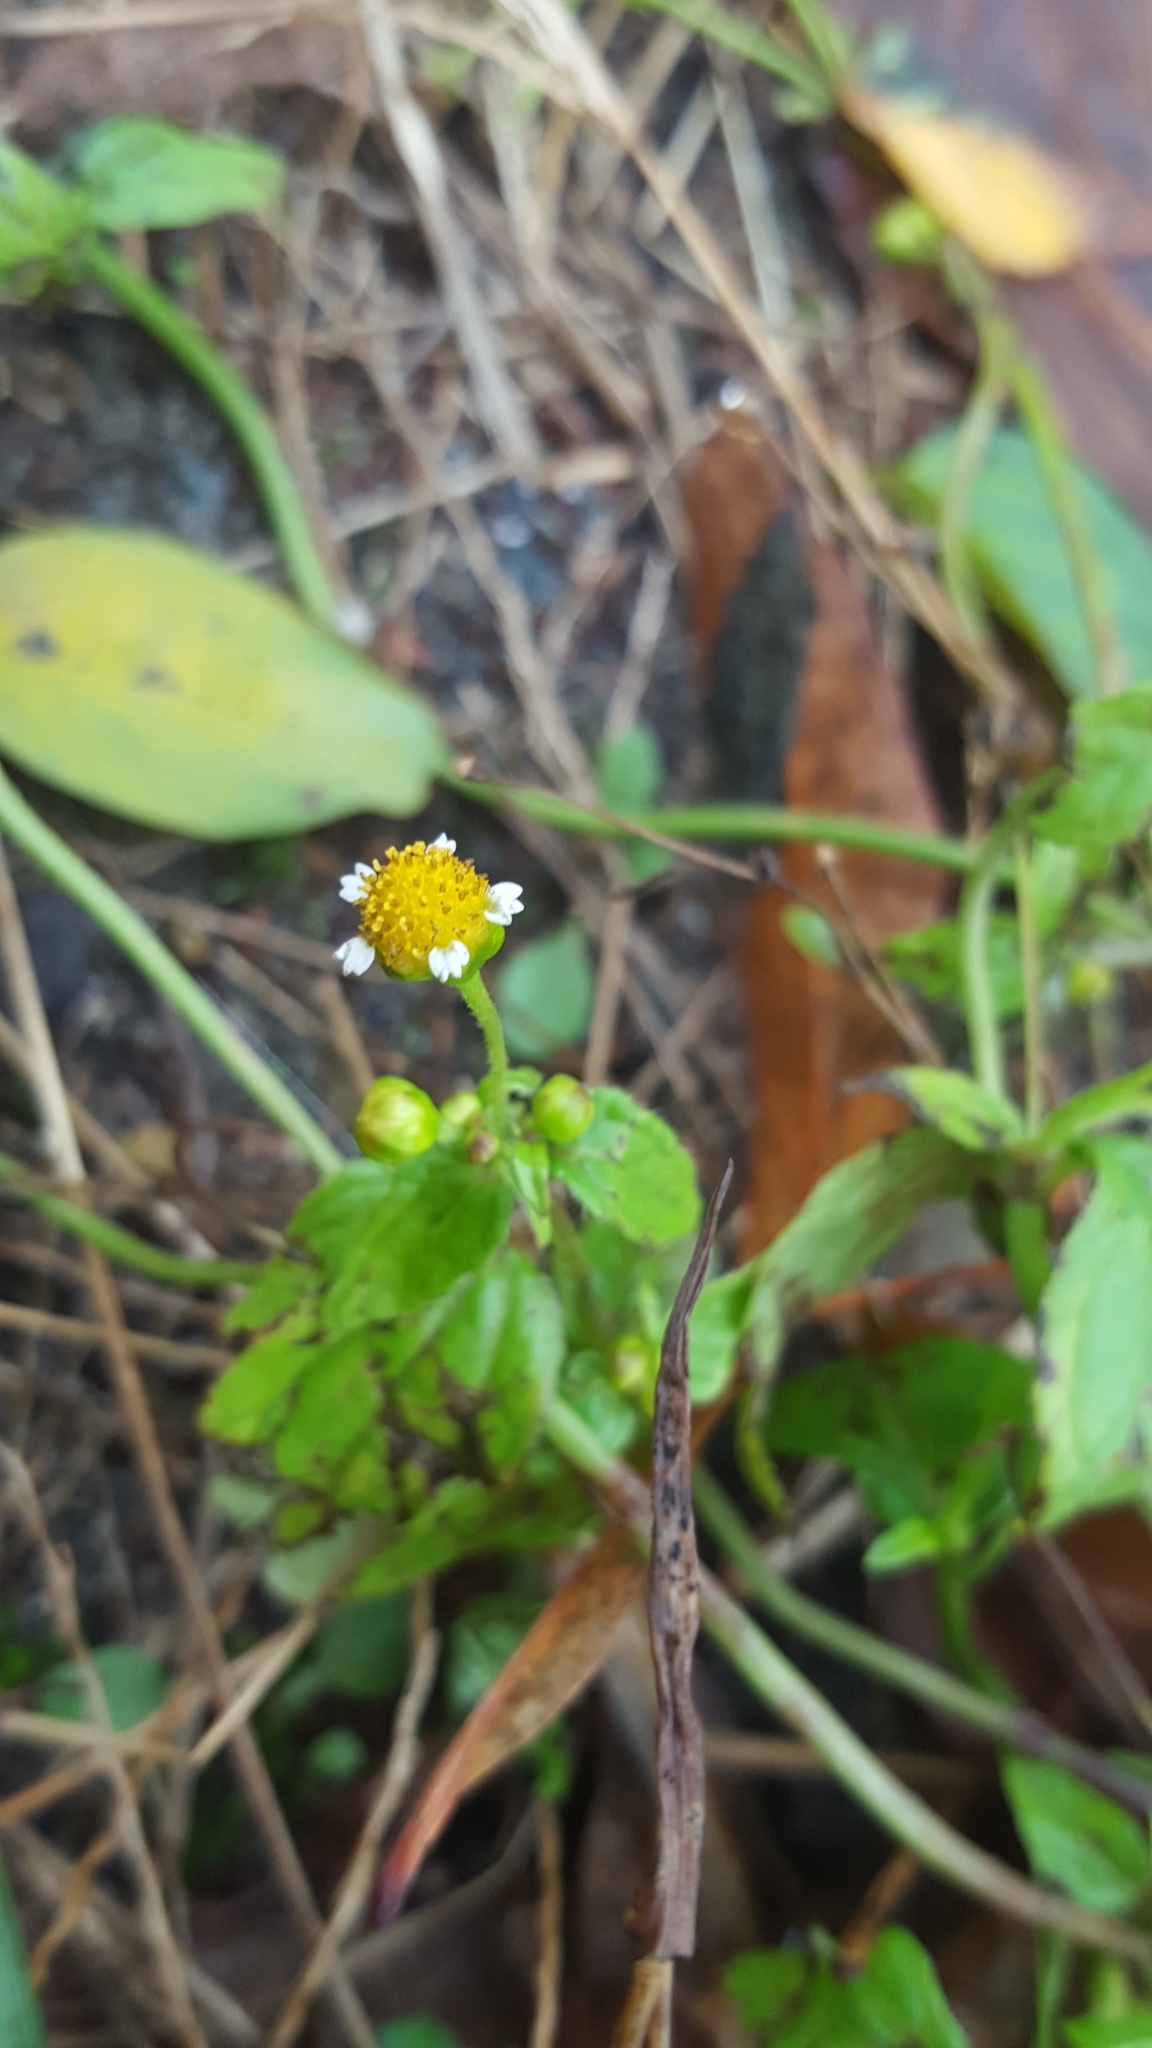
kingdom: Plantae
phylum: Tracheophyta
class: Magnoliopsida
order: Asterales
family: Asteraceae
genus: Galinsoga
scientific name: Galinsoga parviflora
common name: Gallant soldier
